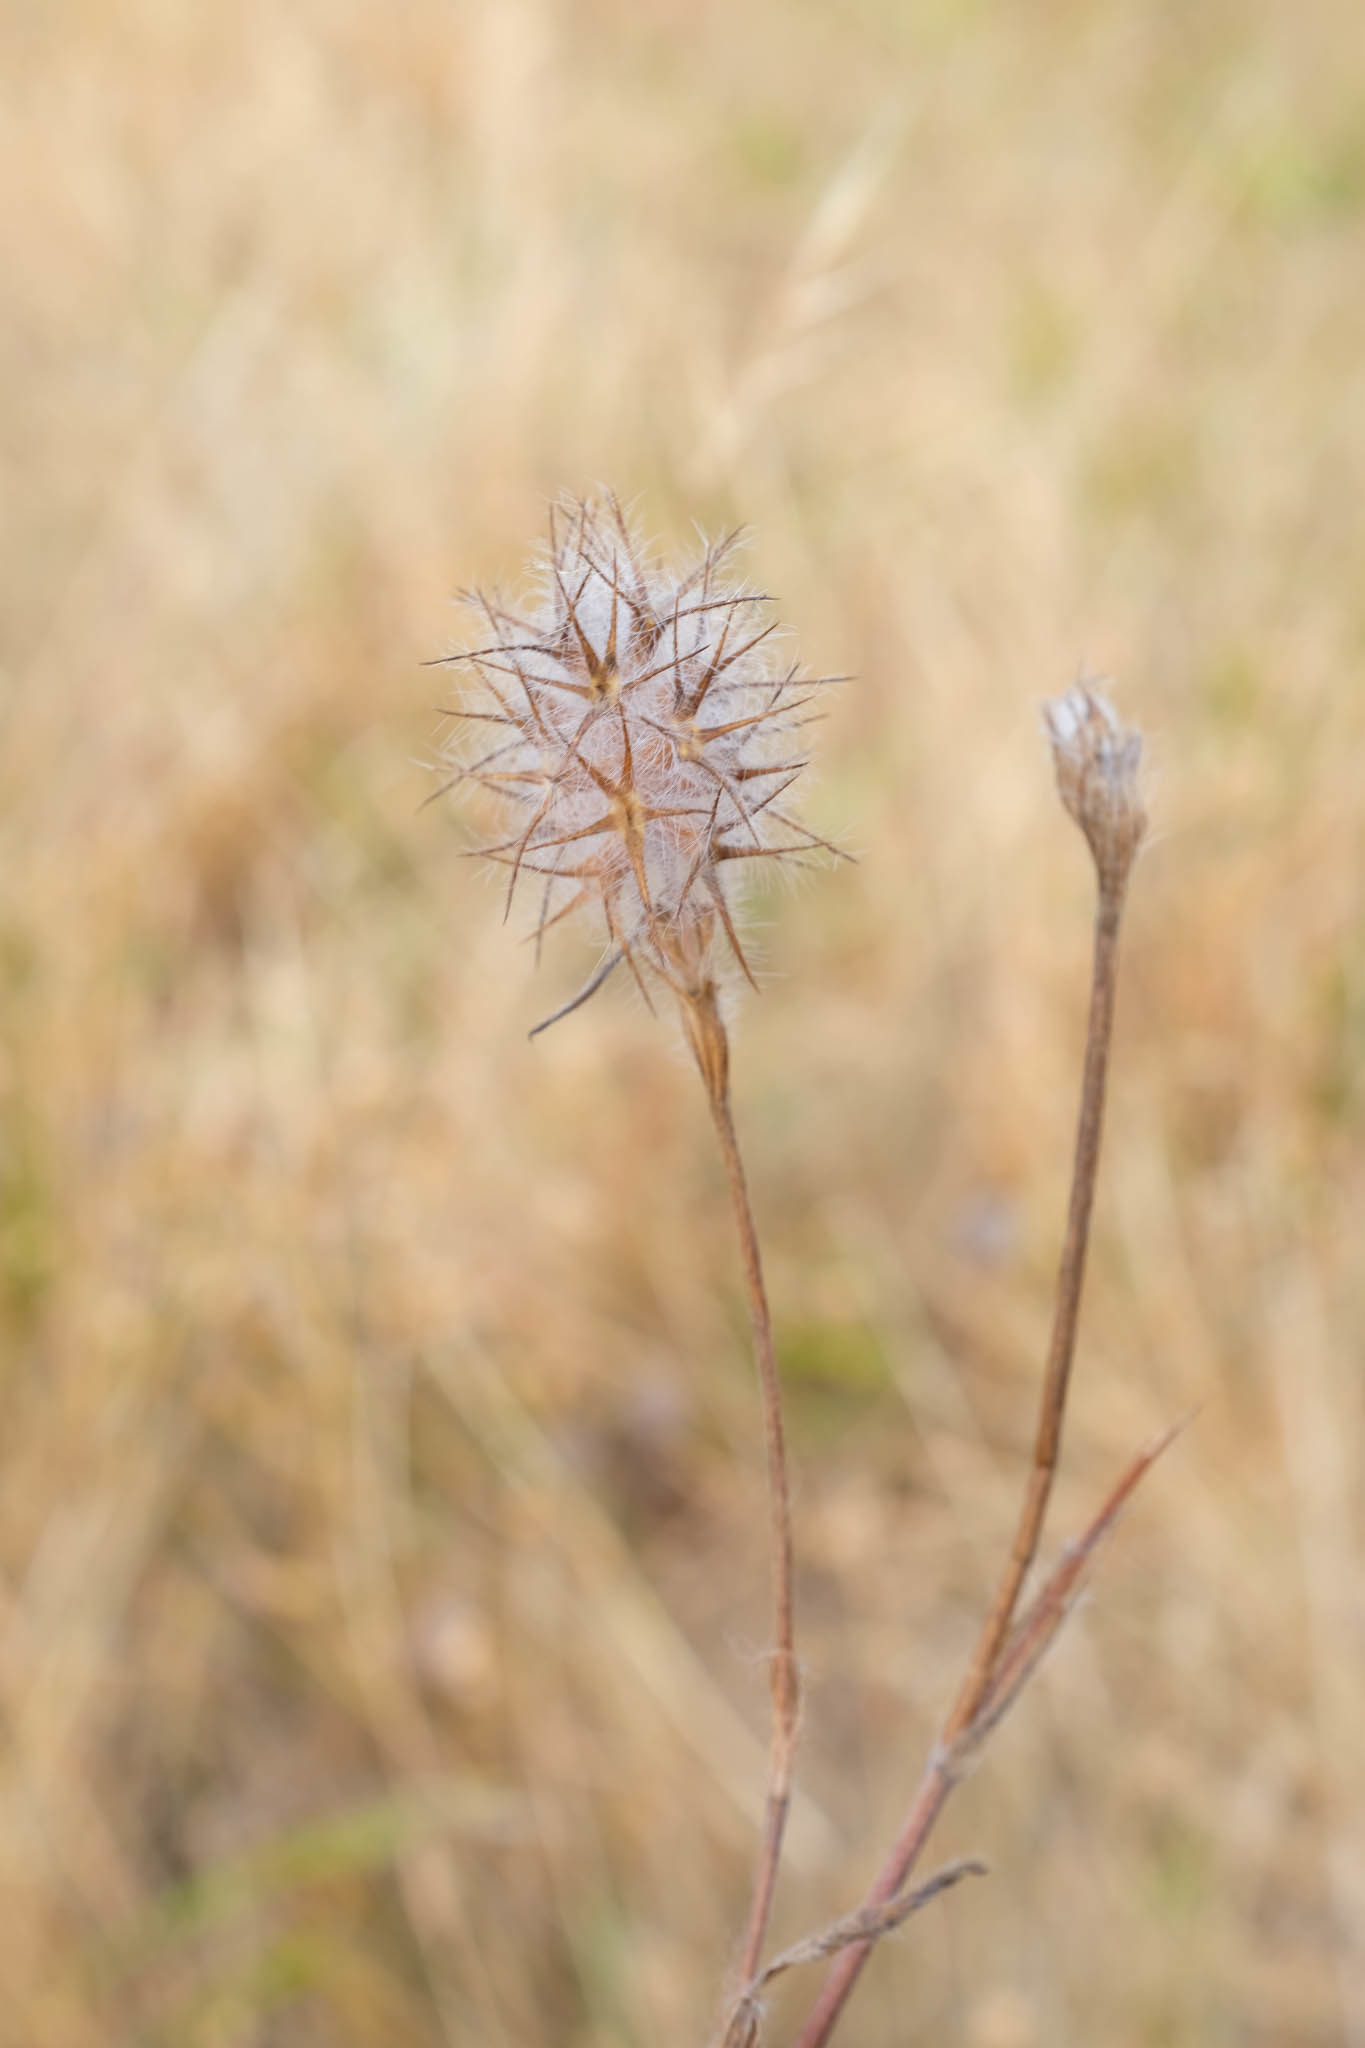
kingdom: Plantae
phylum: Tracheophyta
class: Magnoliopsida
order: Fabales
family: Fabaceae
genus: Trifolium
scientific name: Trifolium angustifolium
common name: Narrow clover
